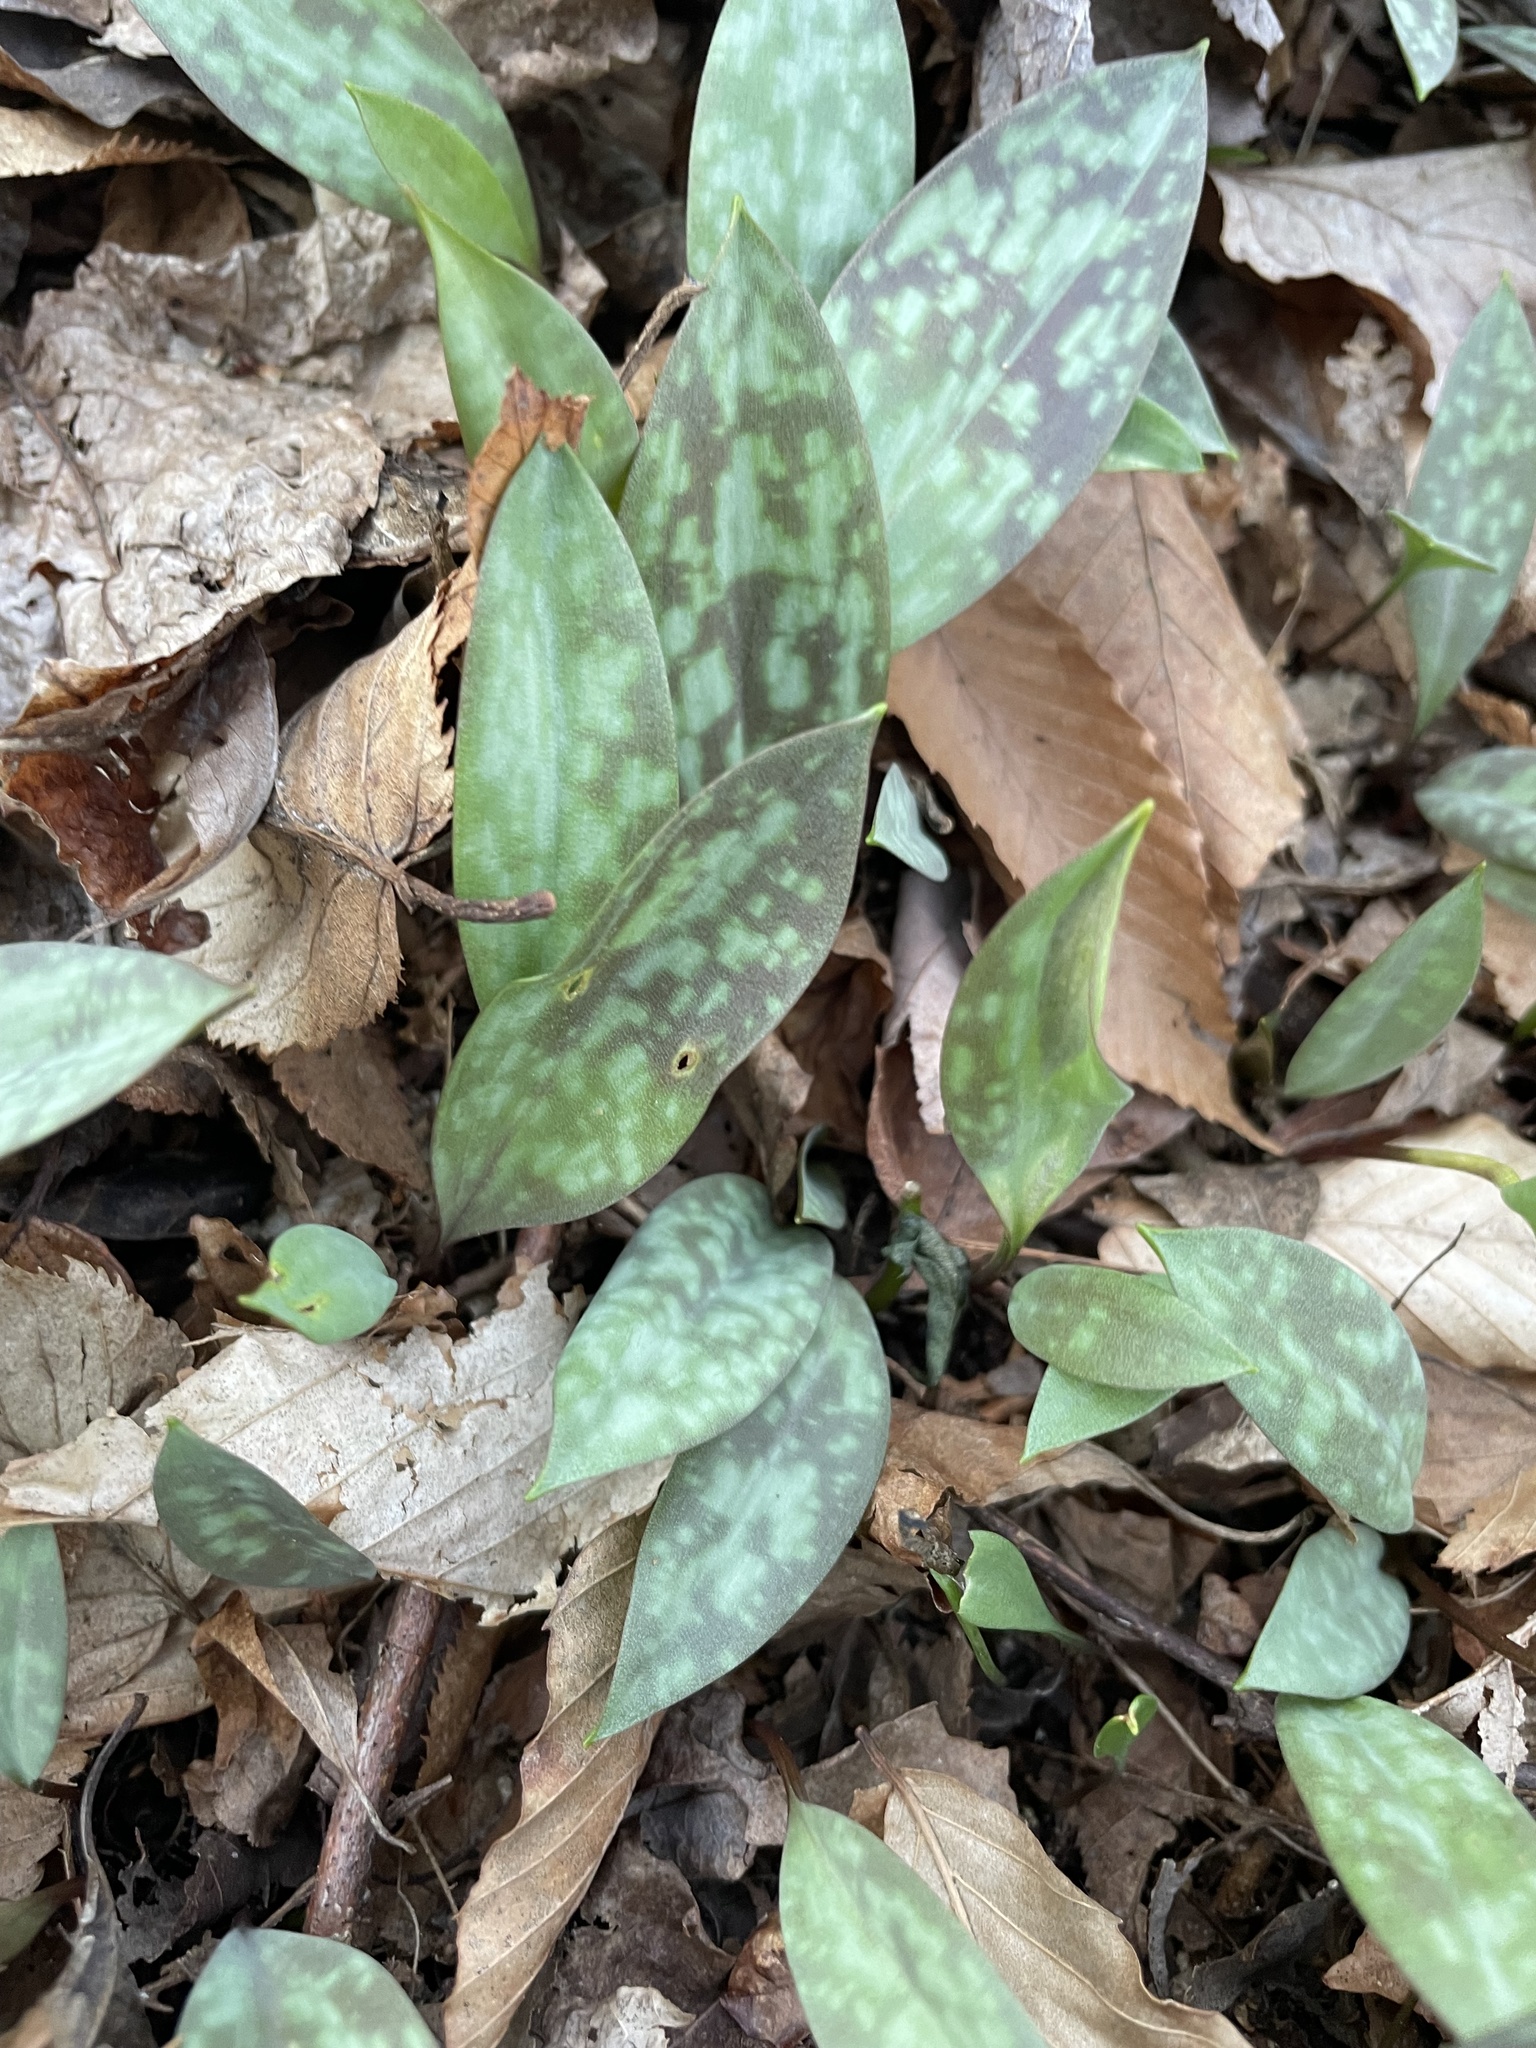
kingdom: Plantae
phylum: Tracheophyta
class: Liliopsida
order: Liliales
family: Liliaceae
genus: Erythronium
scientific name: Erythronium americanum
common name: Yellow adder's-tongue
